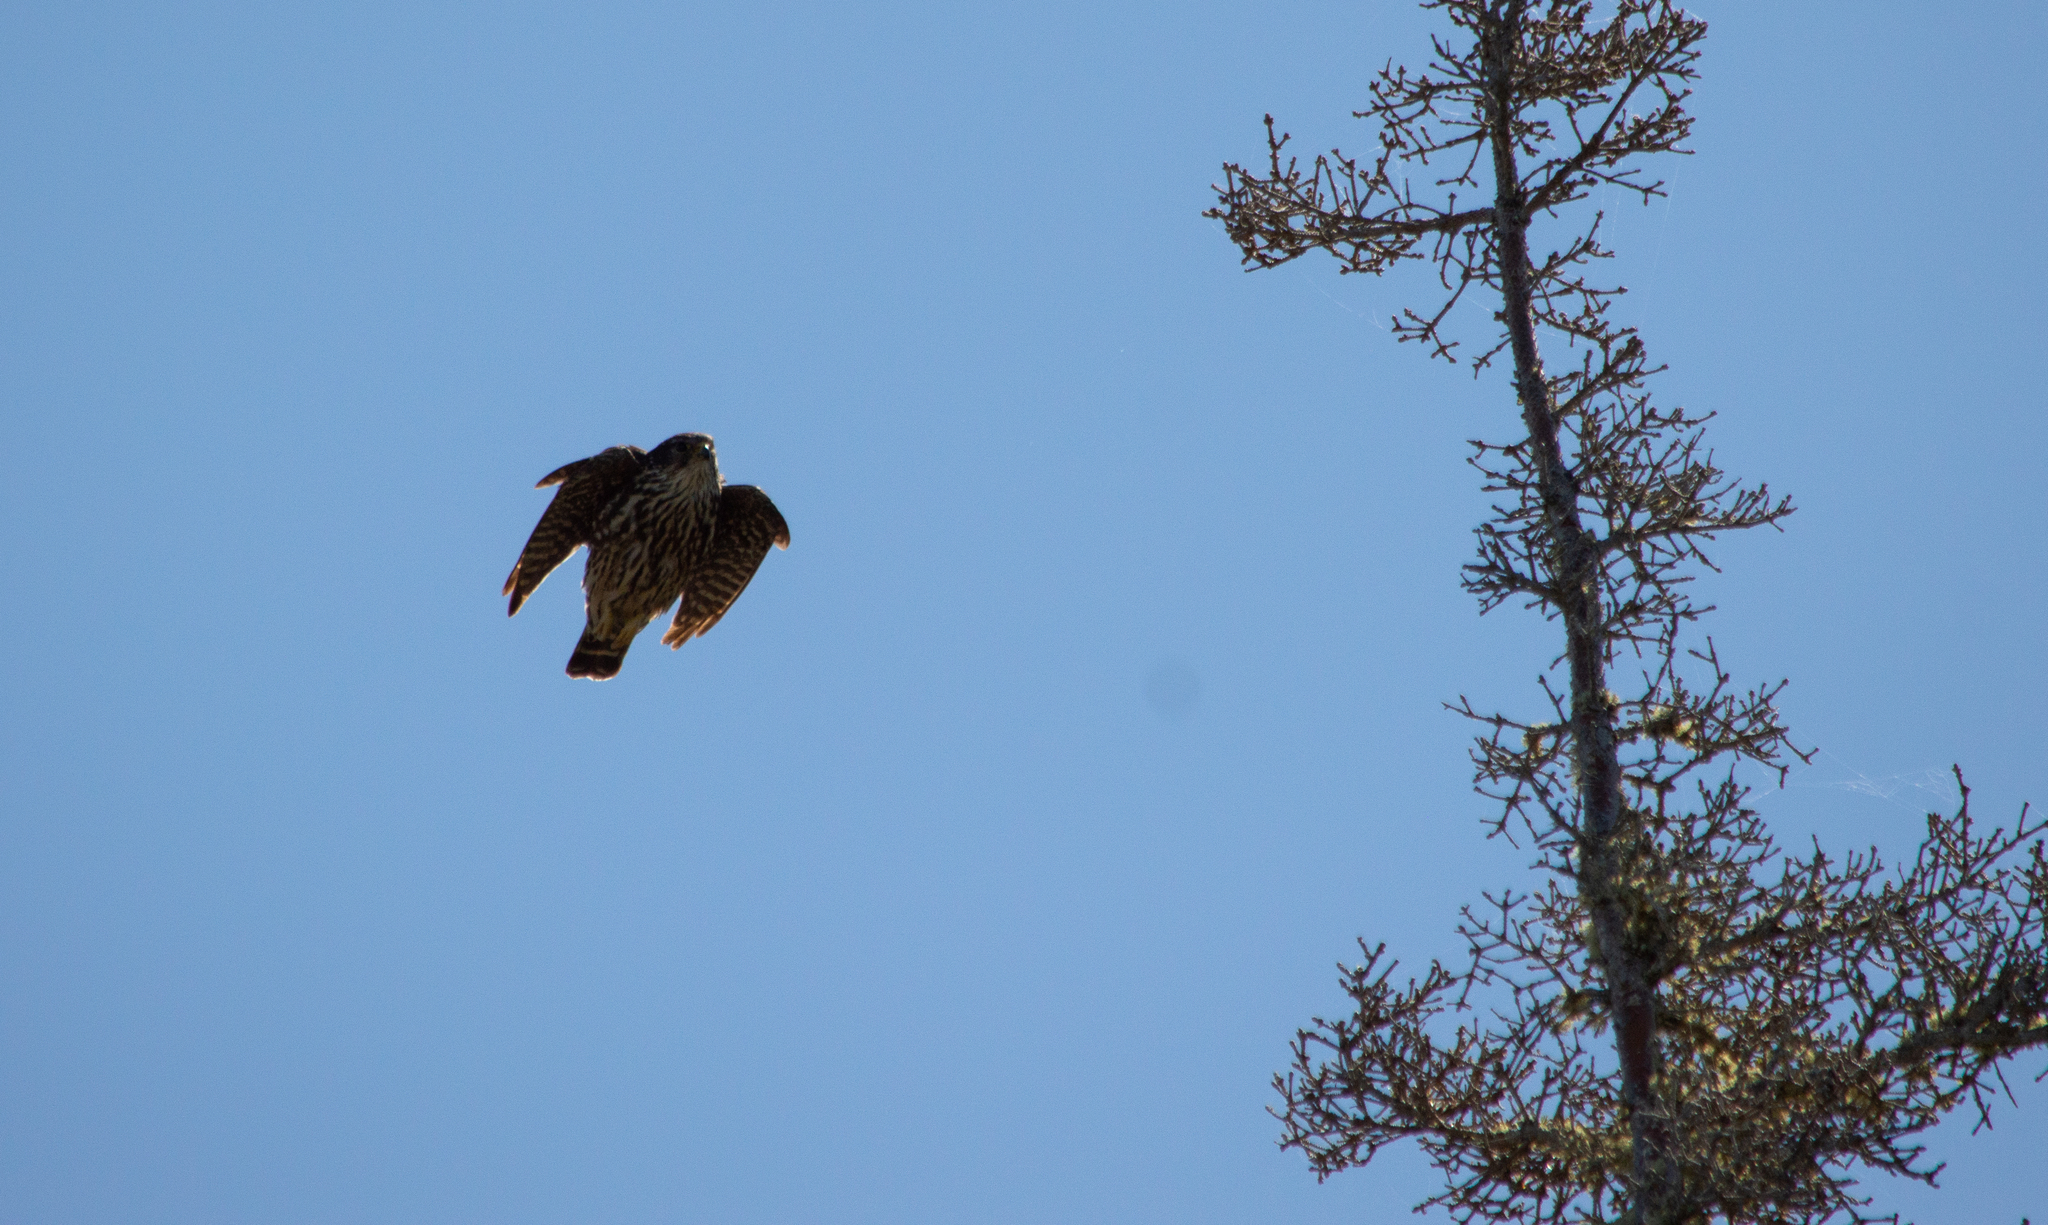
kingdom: Animalia
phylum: Chordata
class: Aves
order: Falconiformes
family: Falconidae
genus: Falco
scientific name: Falco columbarius
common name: Merlin
